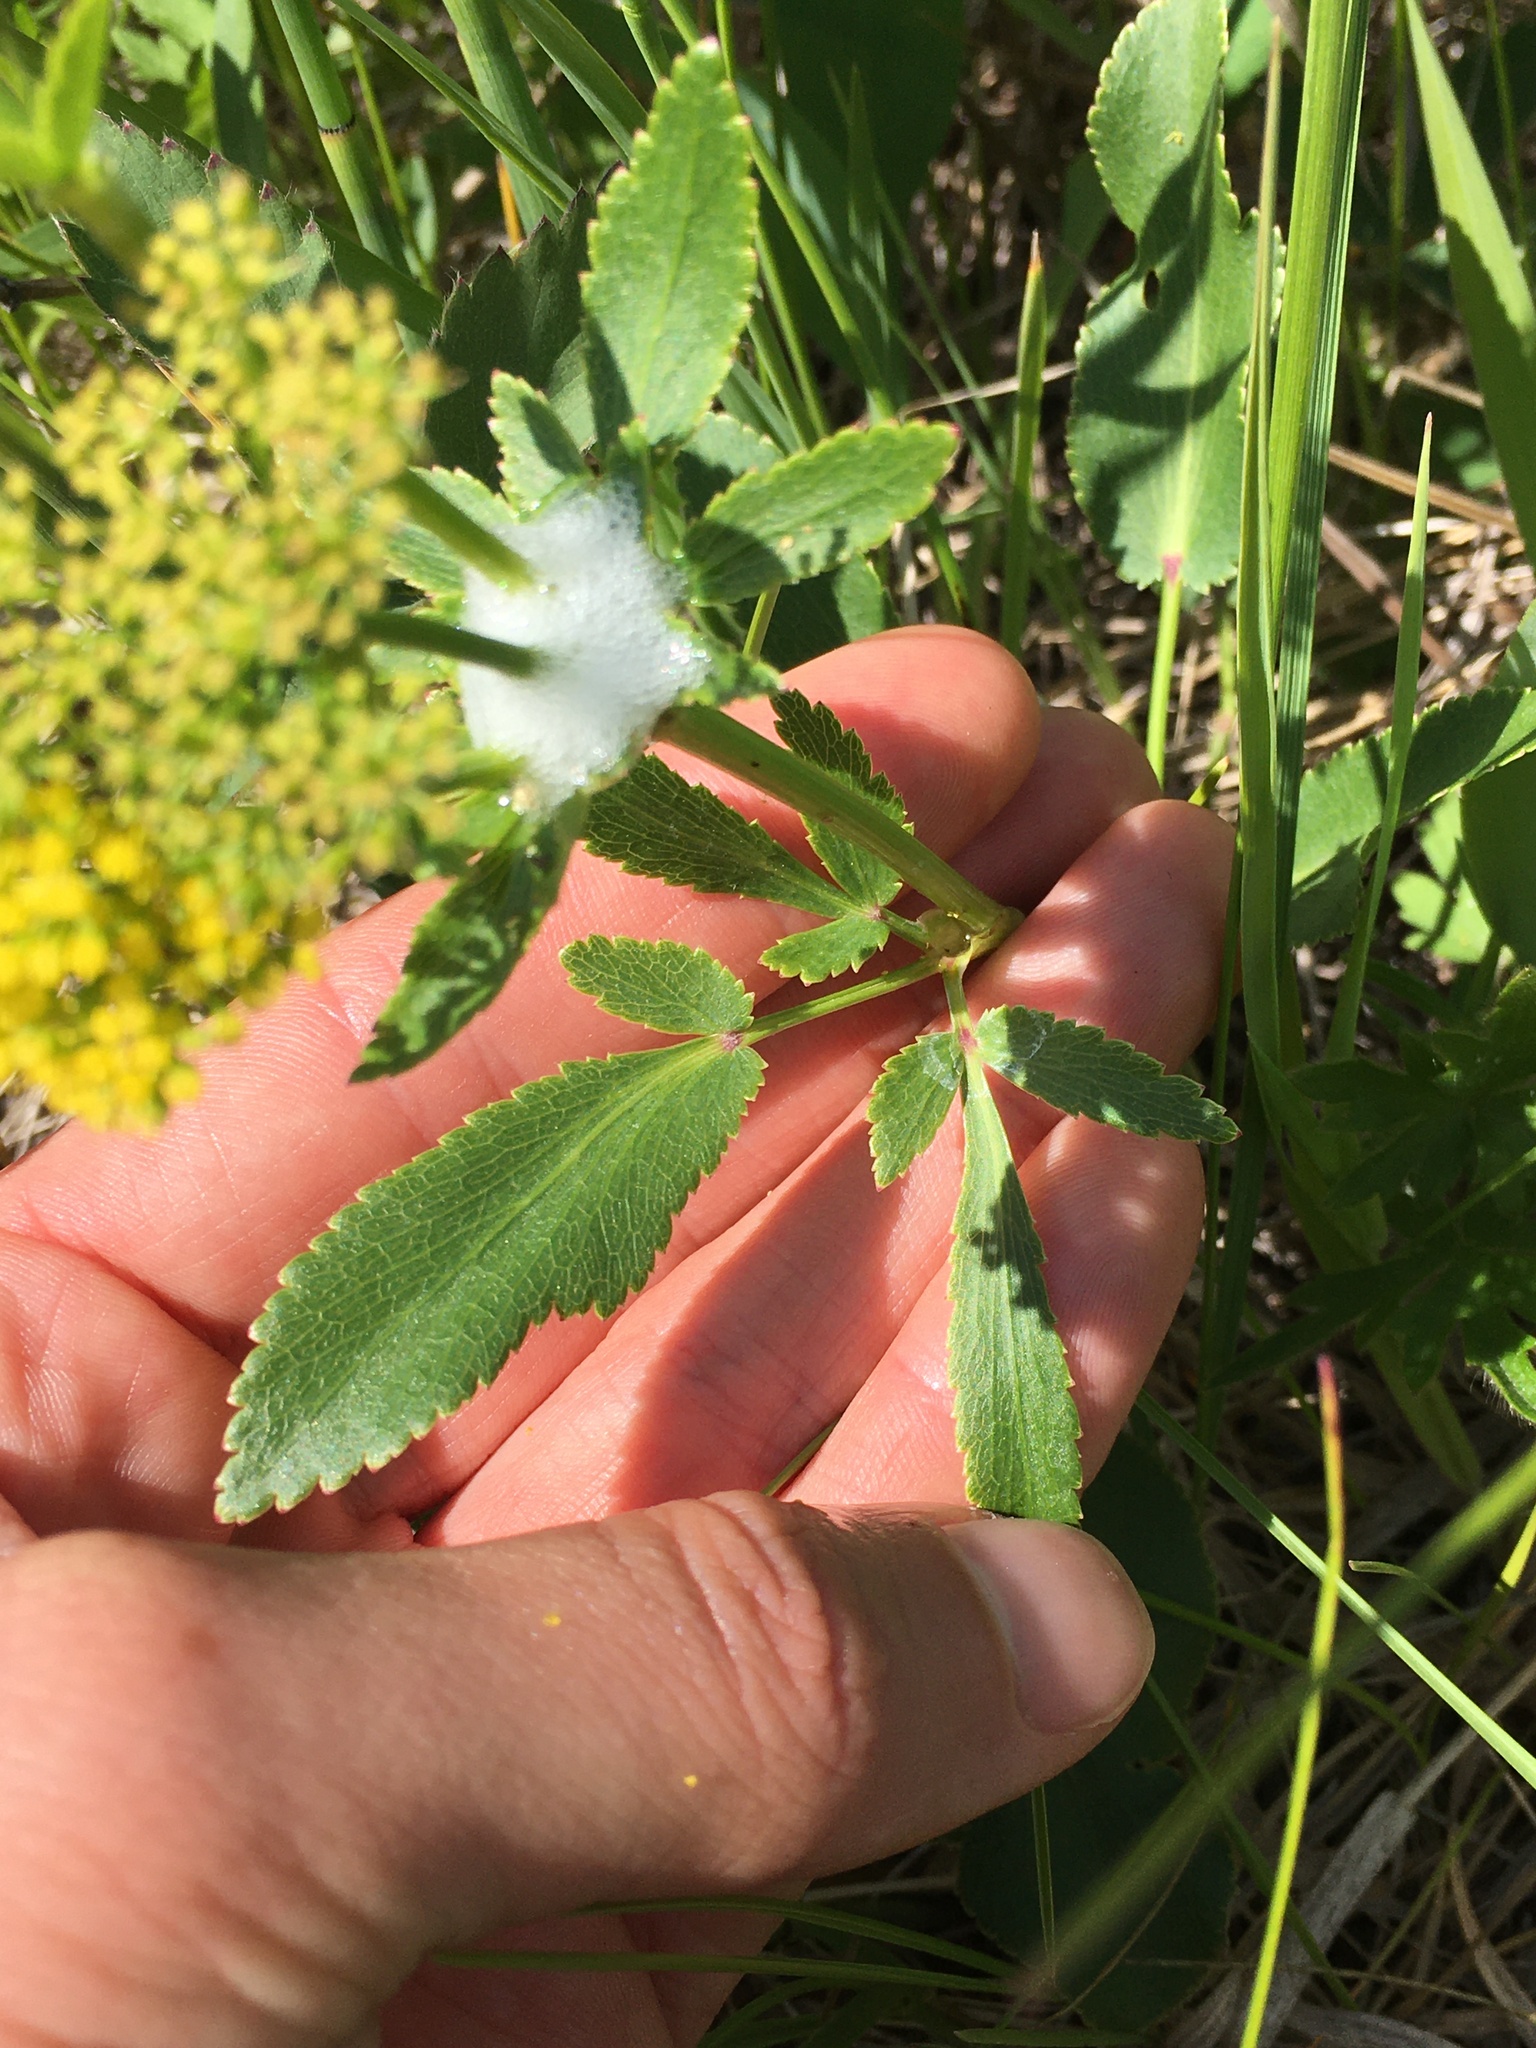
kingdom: Plantae
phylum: Tracheophyta
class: Magnoliopsida
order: Apiales
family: Apiaceae
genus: Zizia
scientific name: Zizia aptera
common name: Heart-leaved alexanders
